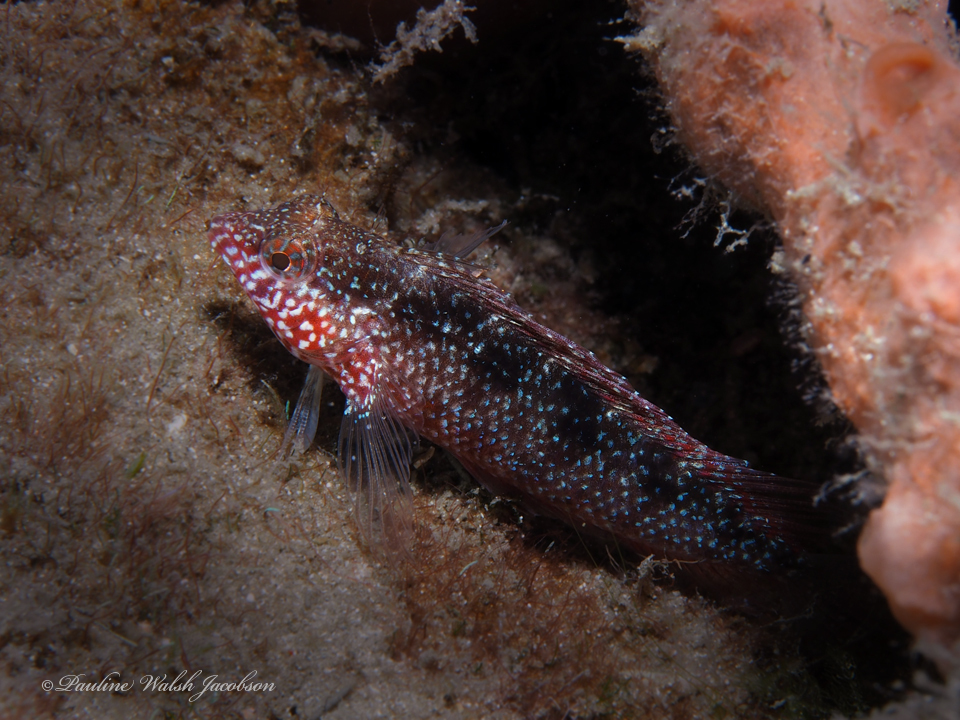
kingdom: Animalia
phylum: Chordata
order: Perciformes
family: Labrisomidae
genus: Malacoctenus
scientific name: Malacoctenus macropus
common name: Rosy blenny
